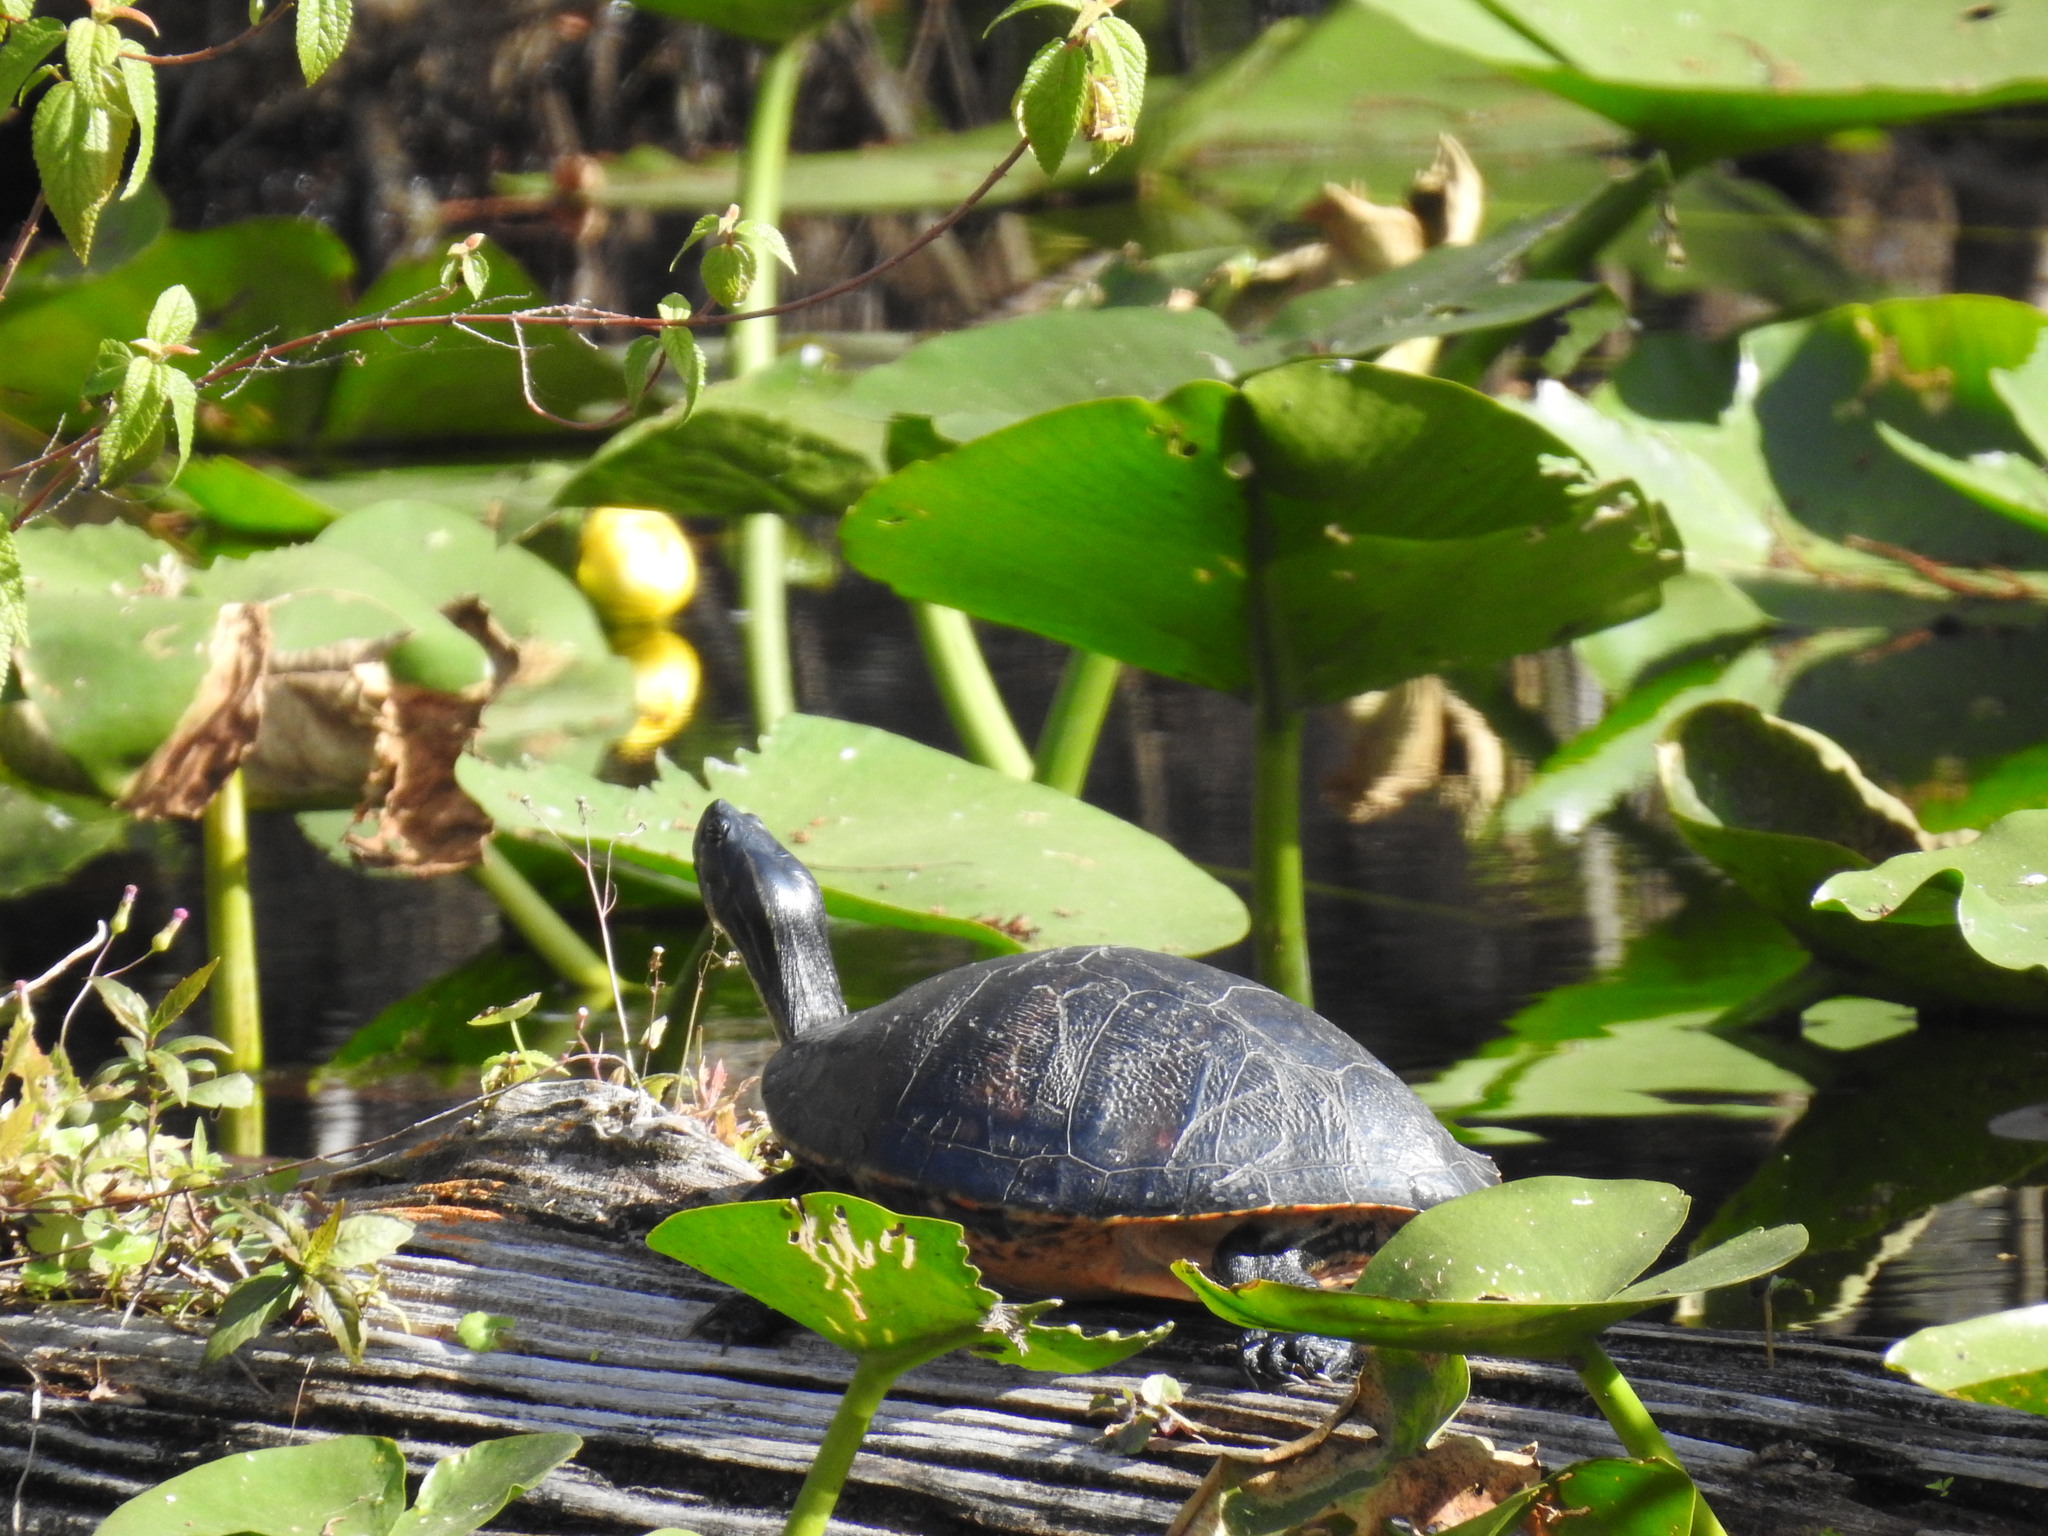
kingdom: Animalia
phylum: Chordata
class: Testudines
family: Emydidae
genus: Pseudemys
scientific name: Pseudemys nelsoni
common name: Florida red-bellied turtle
